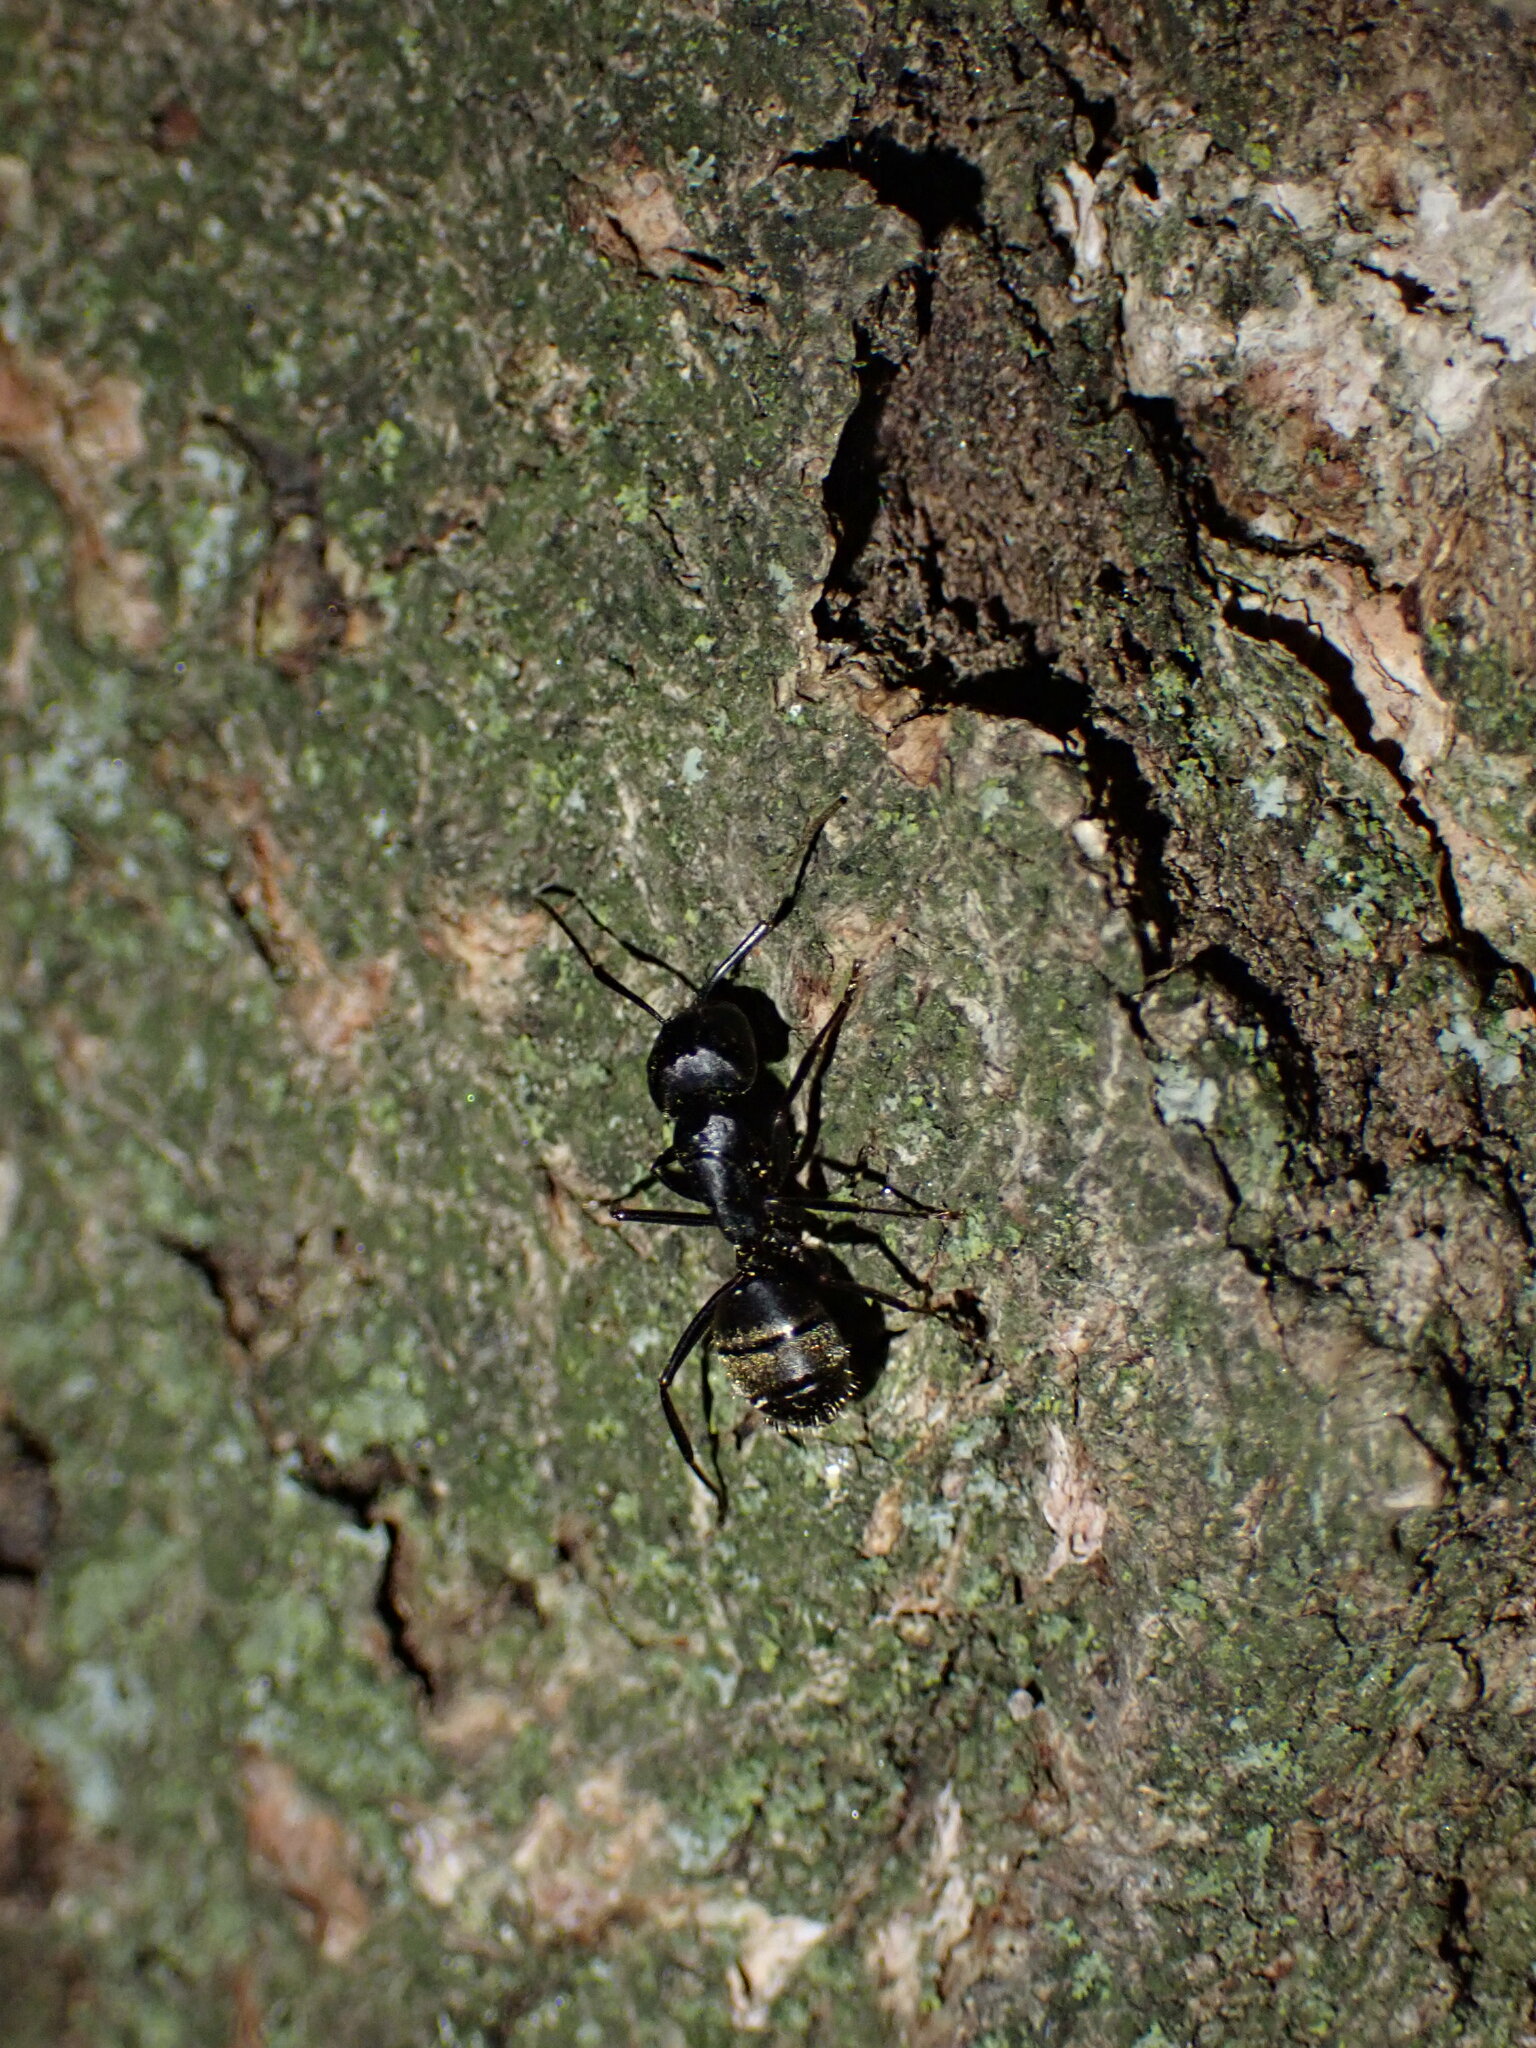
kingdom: Animalia
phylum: Arthropoda
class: Insecta
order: Hymenoptera
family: Formicidae
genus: Camponotus
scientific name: Camponotus pennsylvanicus
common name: Black carpenter ant
